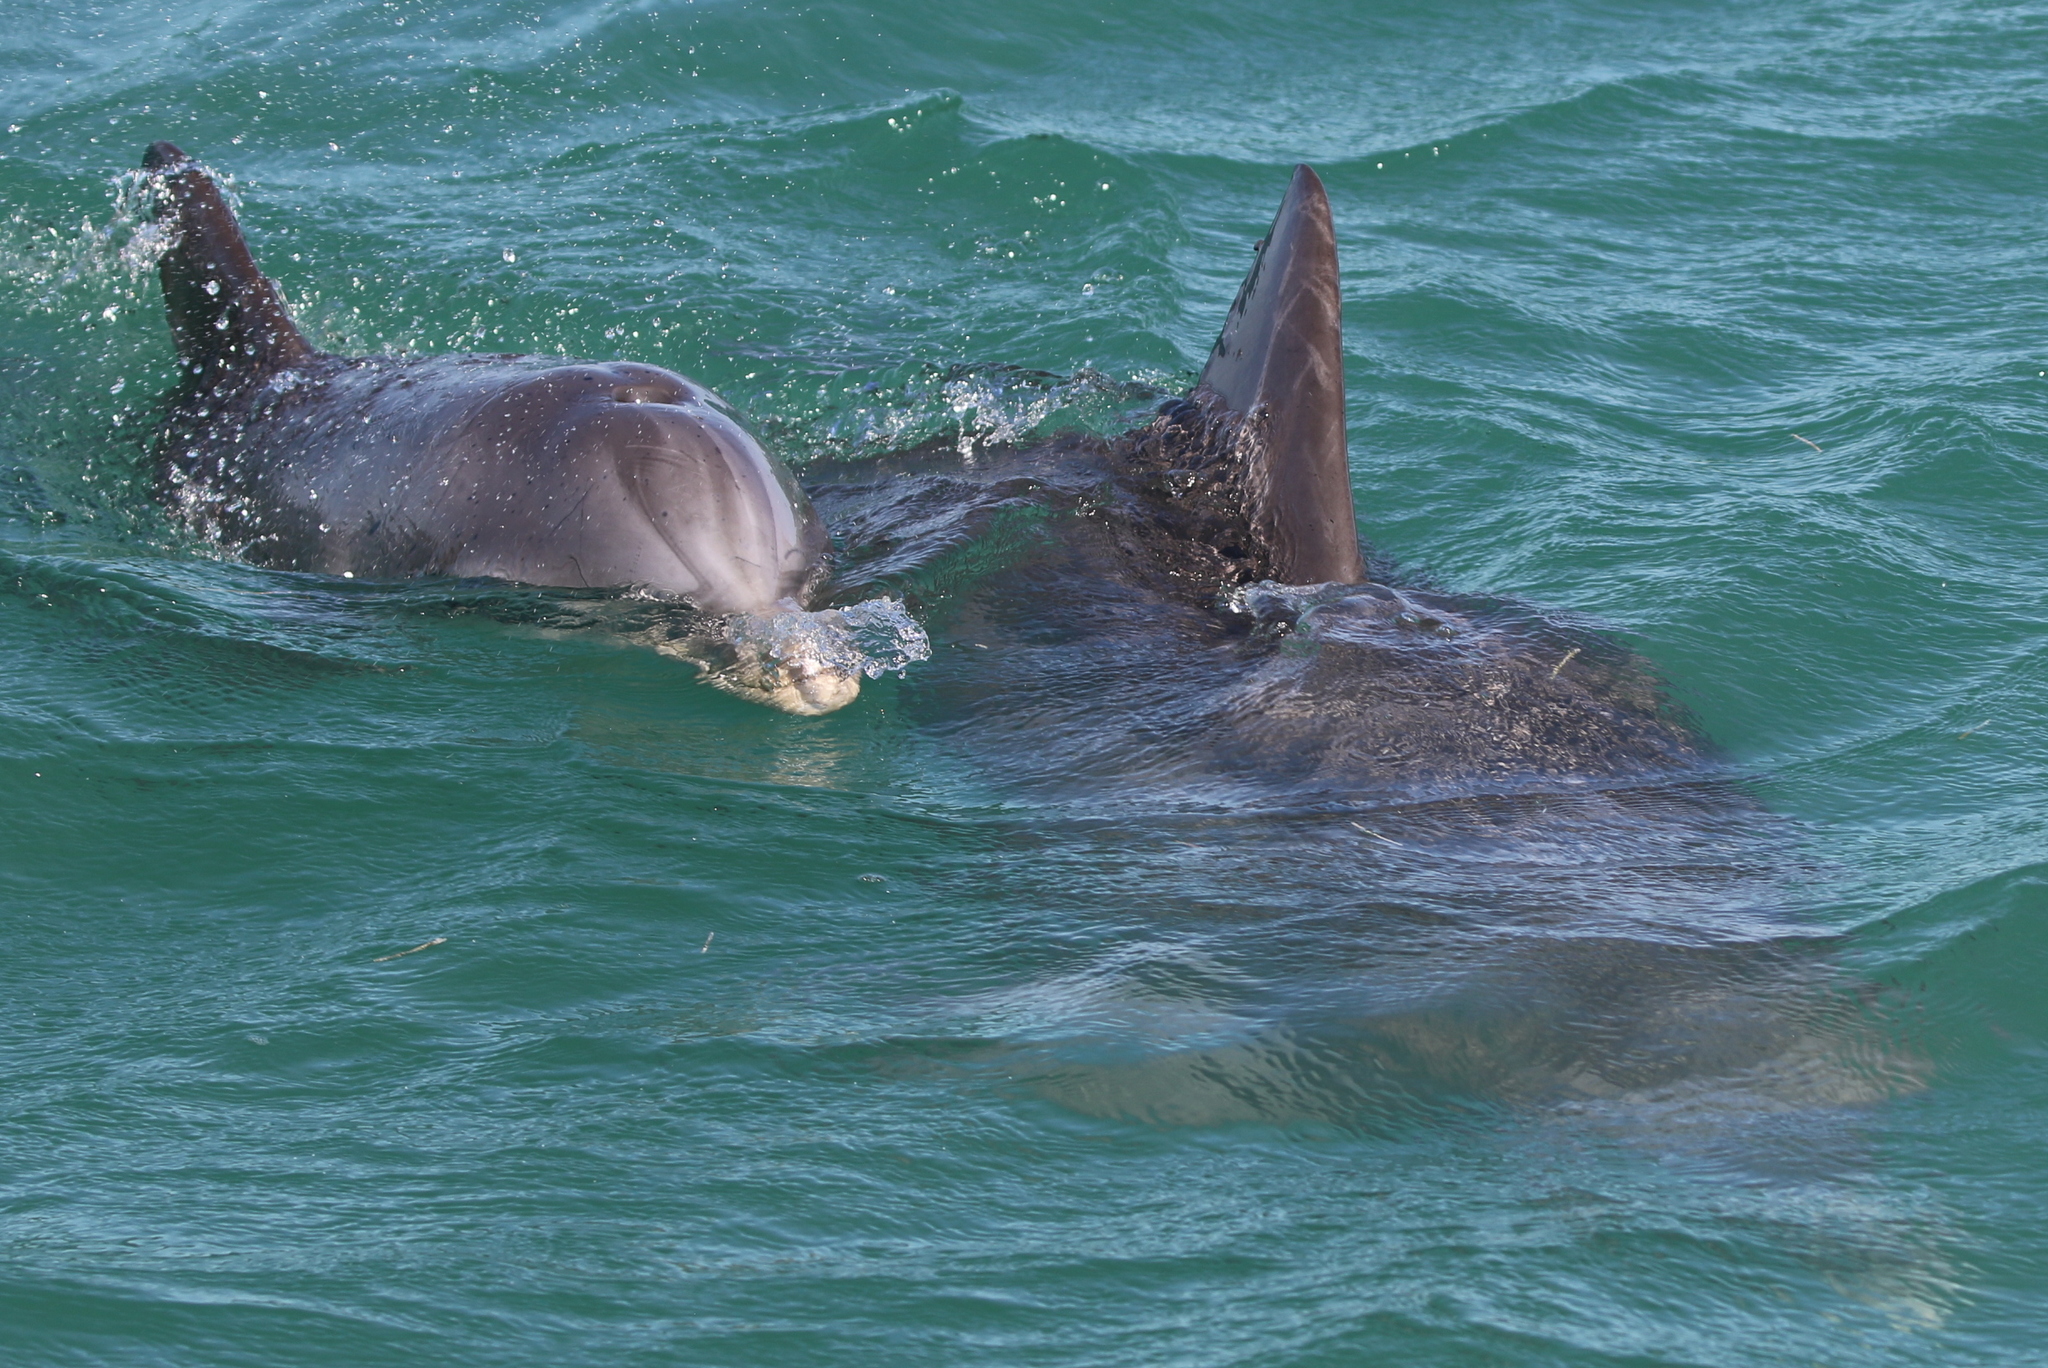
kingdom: Animalia
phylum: Chordata
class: Mammalia
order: Cetacea
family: Delphinidae
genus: Tursiops
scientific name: Tursiops truncatus
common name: Bottlenose dolphin
